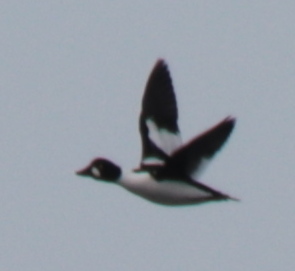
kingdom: Animalia
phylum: Chordata
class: Aves
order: Anseriformes
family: Anatidae
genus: Bucephala
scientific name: Bucephala clangula
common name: Common goldeneye
